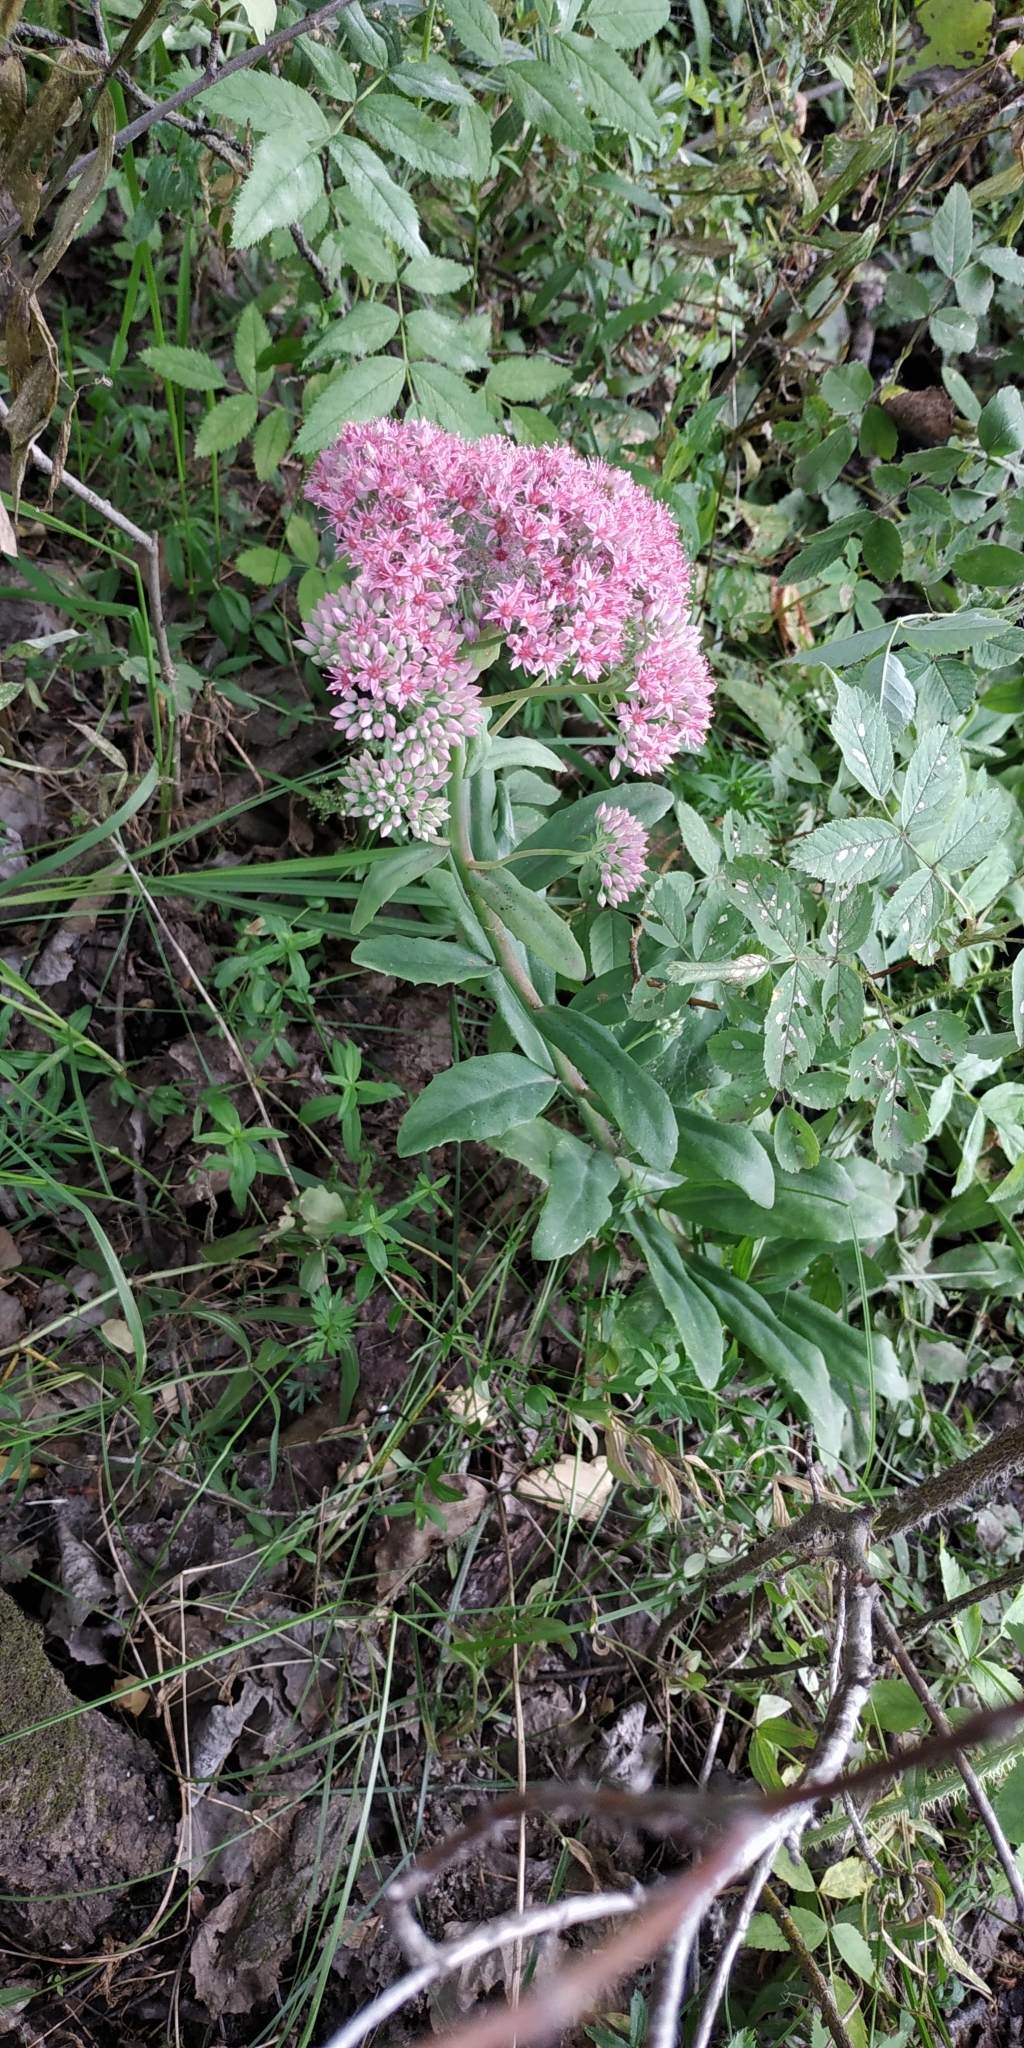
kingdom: Plantae
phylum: Tracheophyta
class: Magnoliopsida
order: Saxifragales
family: Crassulaceae
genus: Hylotelephium
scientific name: Hylotelephium telephium
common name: Live-forever
